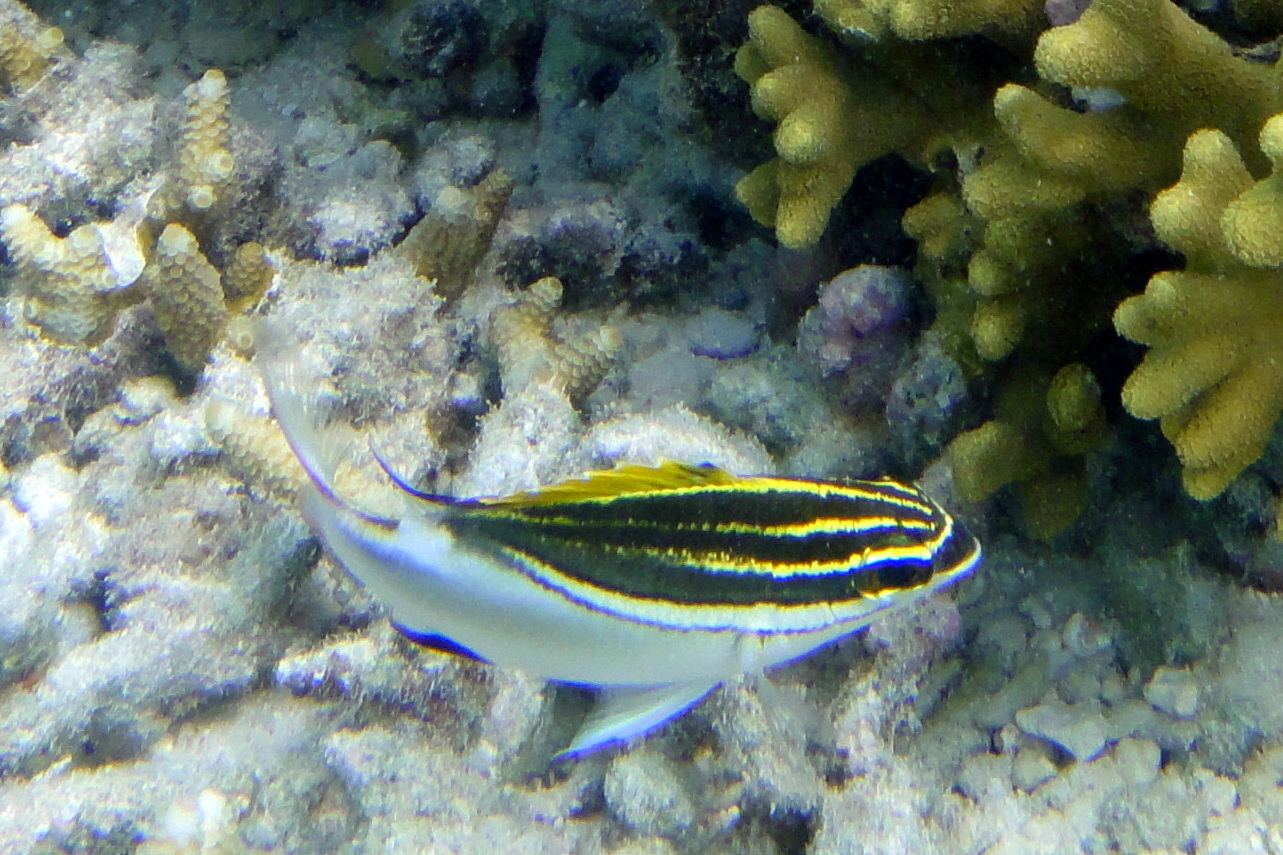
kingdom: Animalia
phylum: Chordata
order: Perciformes
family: Nemipteridae
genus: Scolopsis
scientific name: Scolopsis bilineata
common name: Two-lined monocle bream
